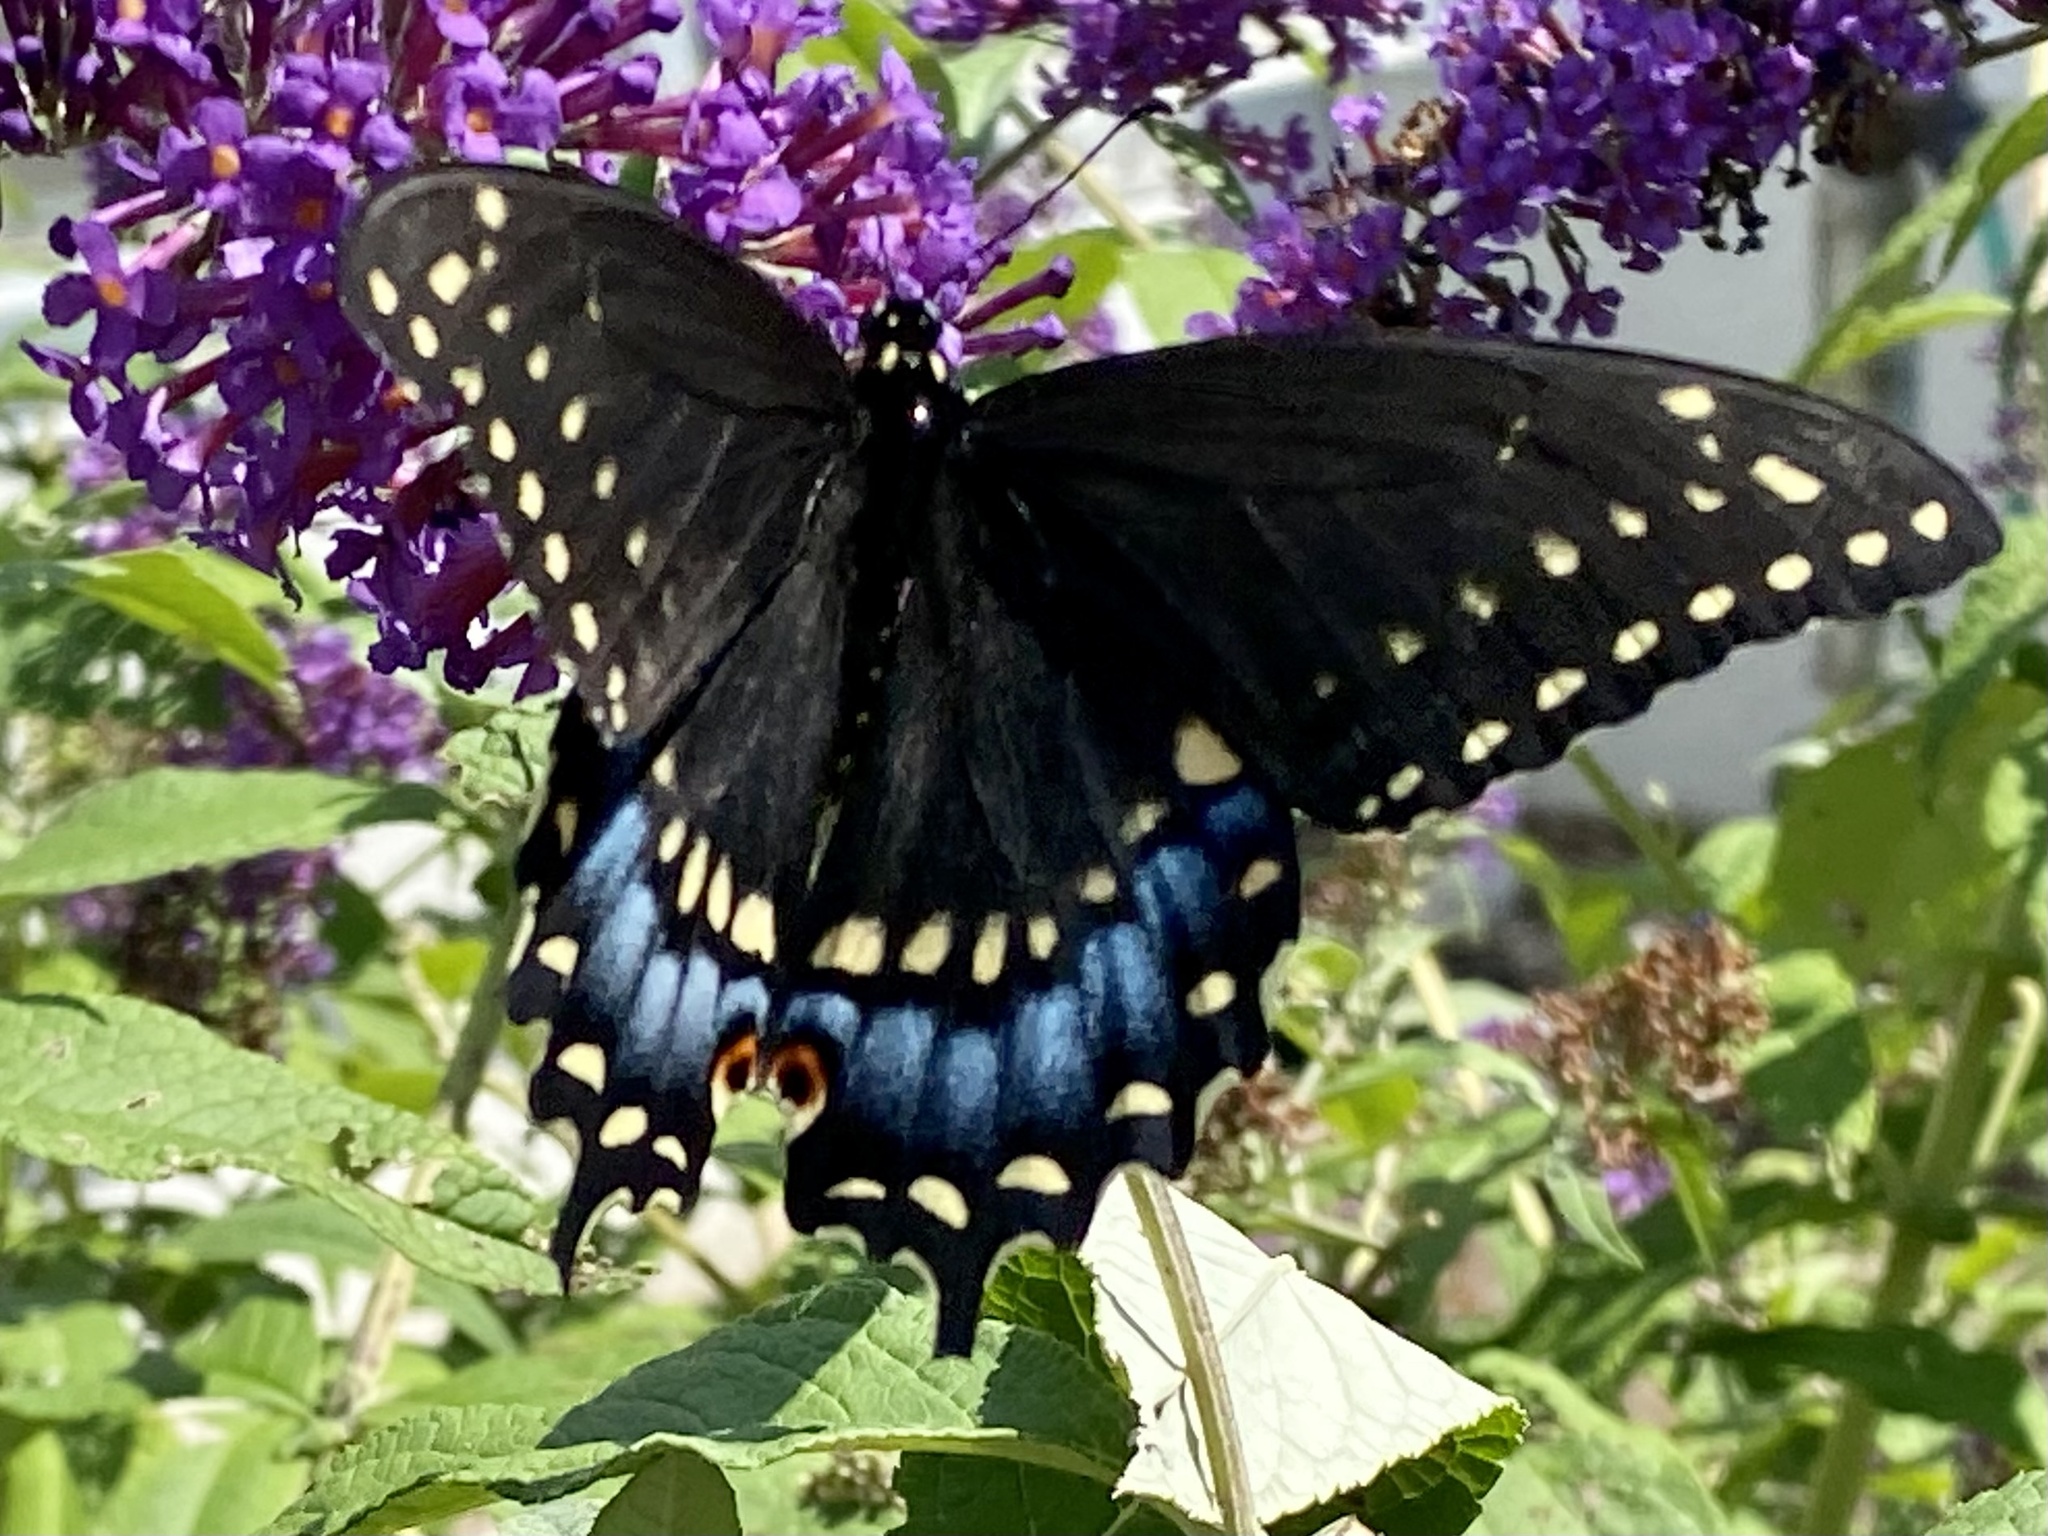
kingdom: Animalia
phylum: Arthropoda
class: Insecta
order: Lepidoptera
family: Papilionidae
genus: Papilio
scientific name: Papilio polyxenes
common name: Black swallowtail
